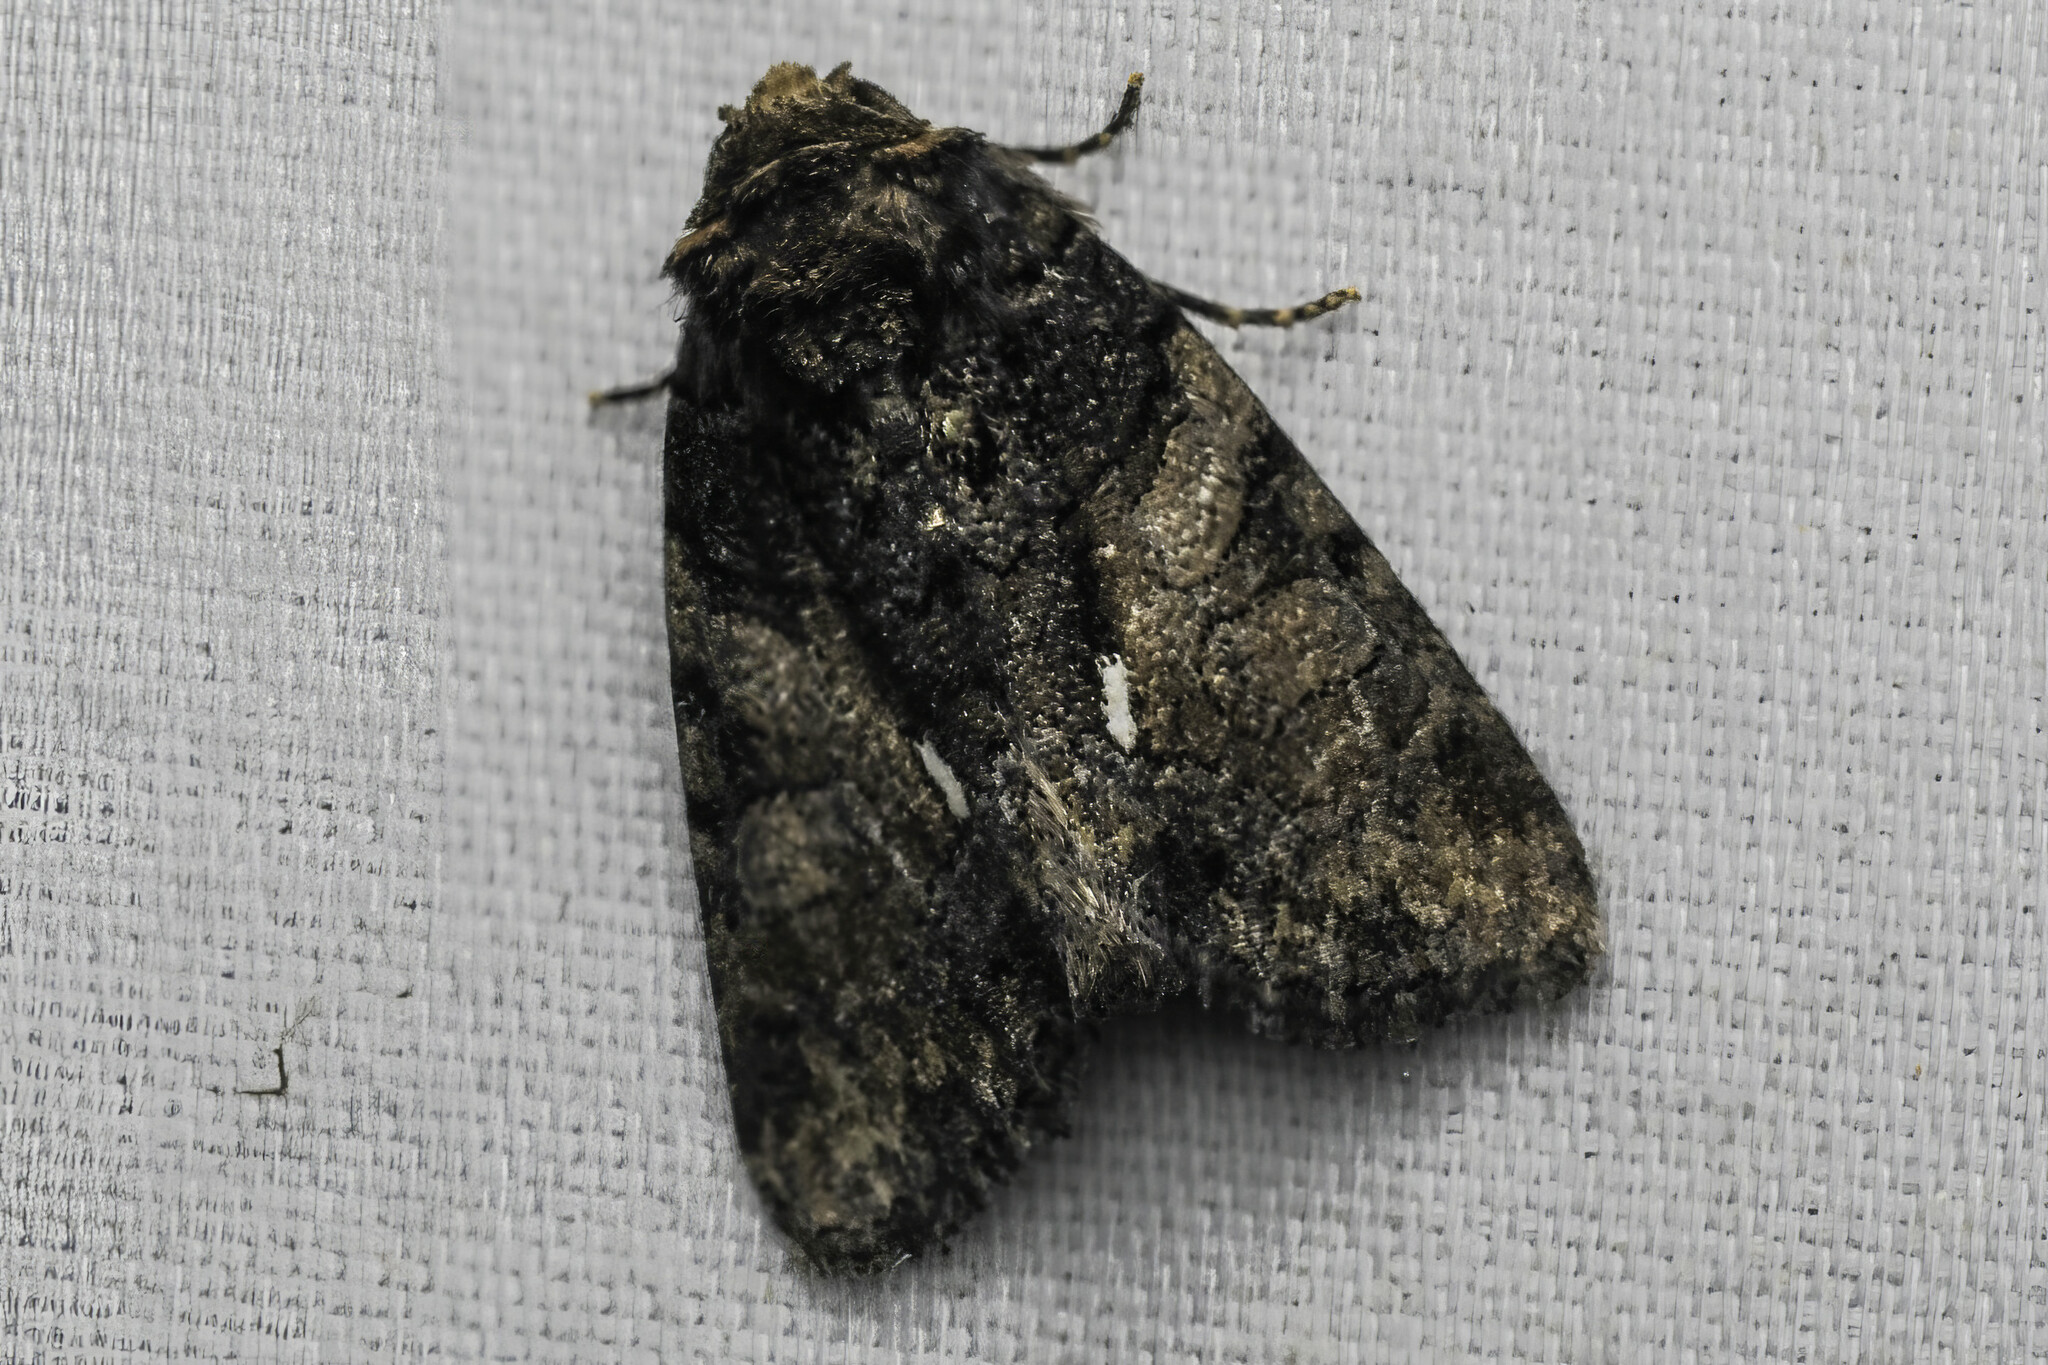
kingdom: Animalia
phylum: Arthropoda
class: Insecta
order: Lepidoptera
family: Noctuidae
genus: Chytonix
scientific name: Chytonix palliatricula
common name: Cloaked marvel
